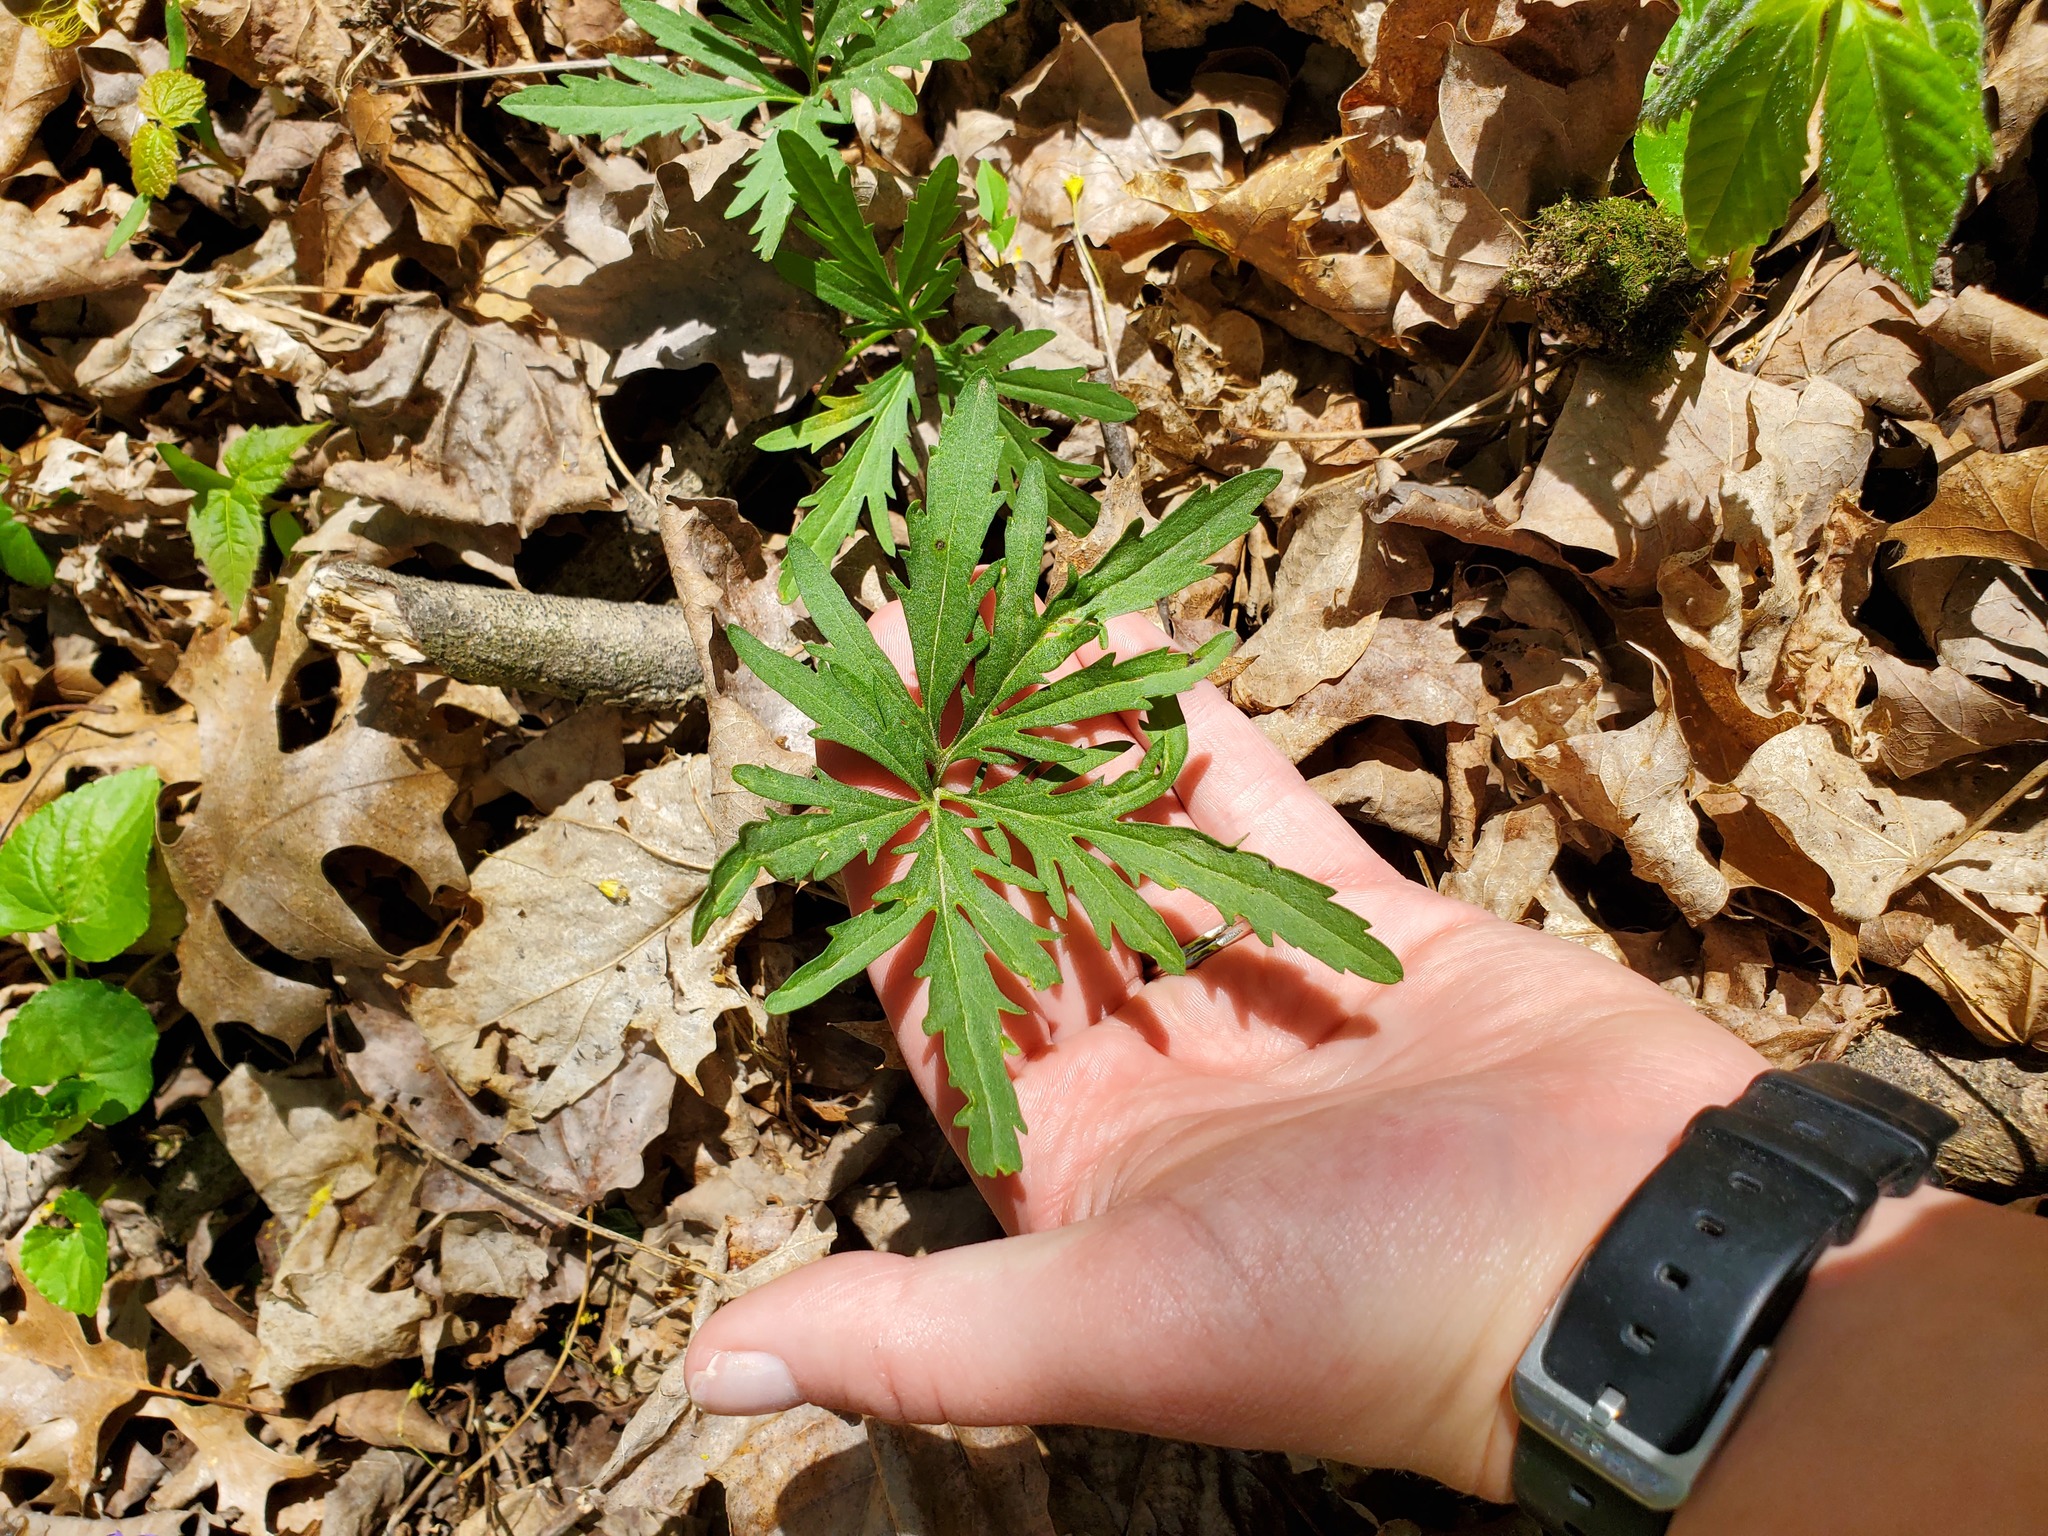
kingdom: Plantae
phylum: Tracheophyta
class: Magnoliopsida
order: Brassicales
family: Brassicaceae
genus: Cardamine
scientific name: Cardamine concatenata
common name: Cut-leaf toothcup
